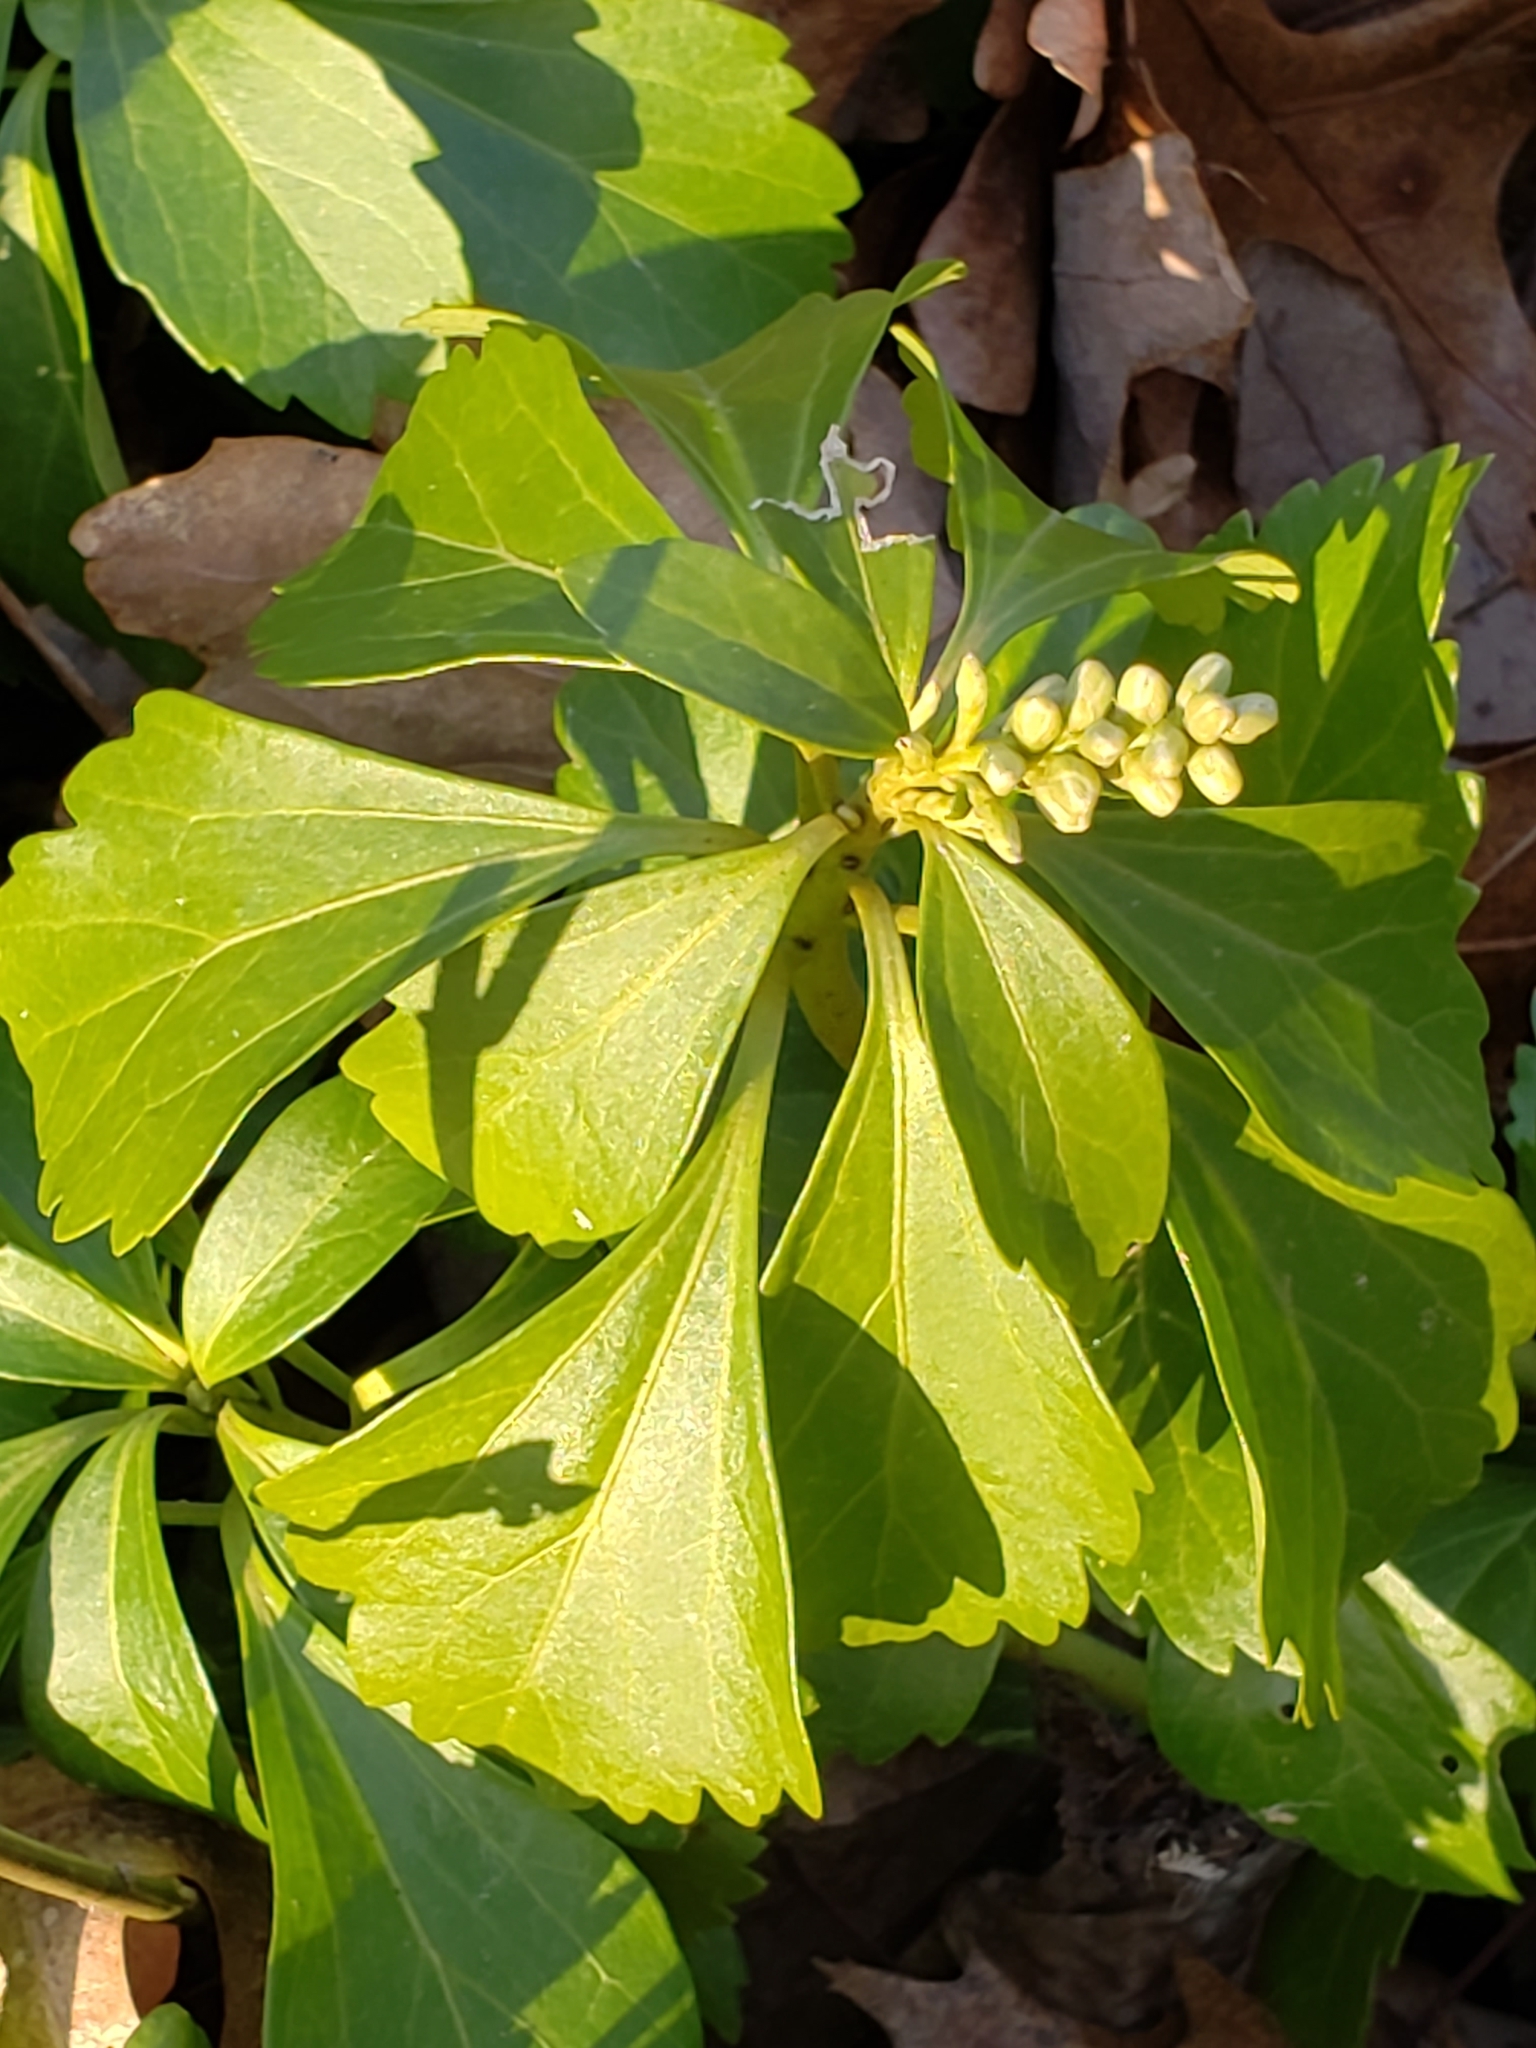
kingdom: Plantae
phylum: Tracheophyta
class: Magnoliopsida
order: Buxales
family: Buxaceae
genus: Pachysandra
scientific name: Pachysandra terminalis
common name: Japanese pachysandra
